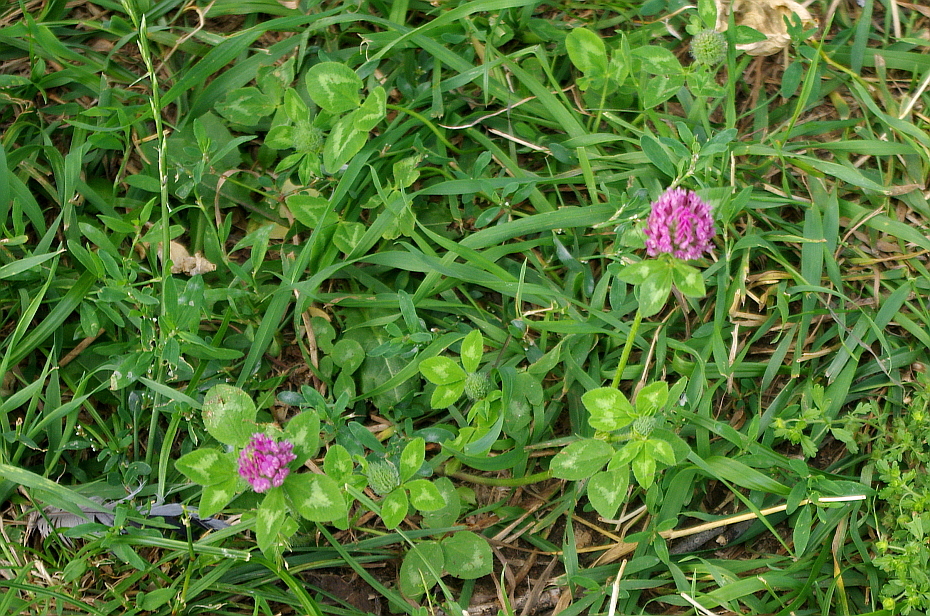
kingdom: Plantae
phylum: Tracheophyta
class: Magnoliopsida
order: Fabales
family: Fabaceae
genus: Trifolium
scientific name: Trifolium pratense
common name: Red clover
